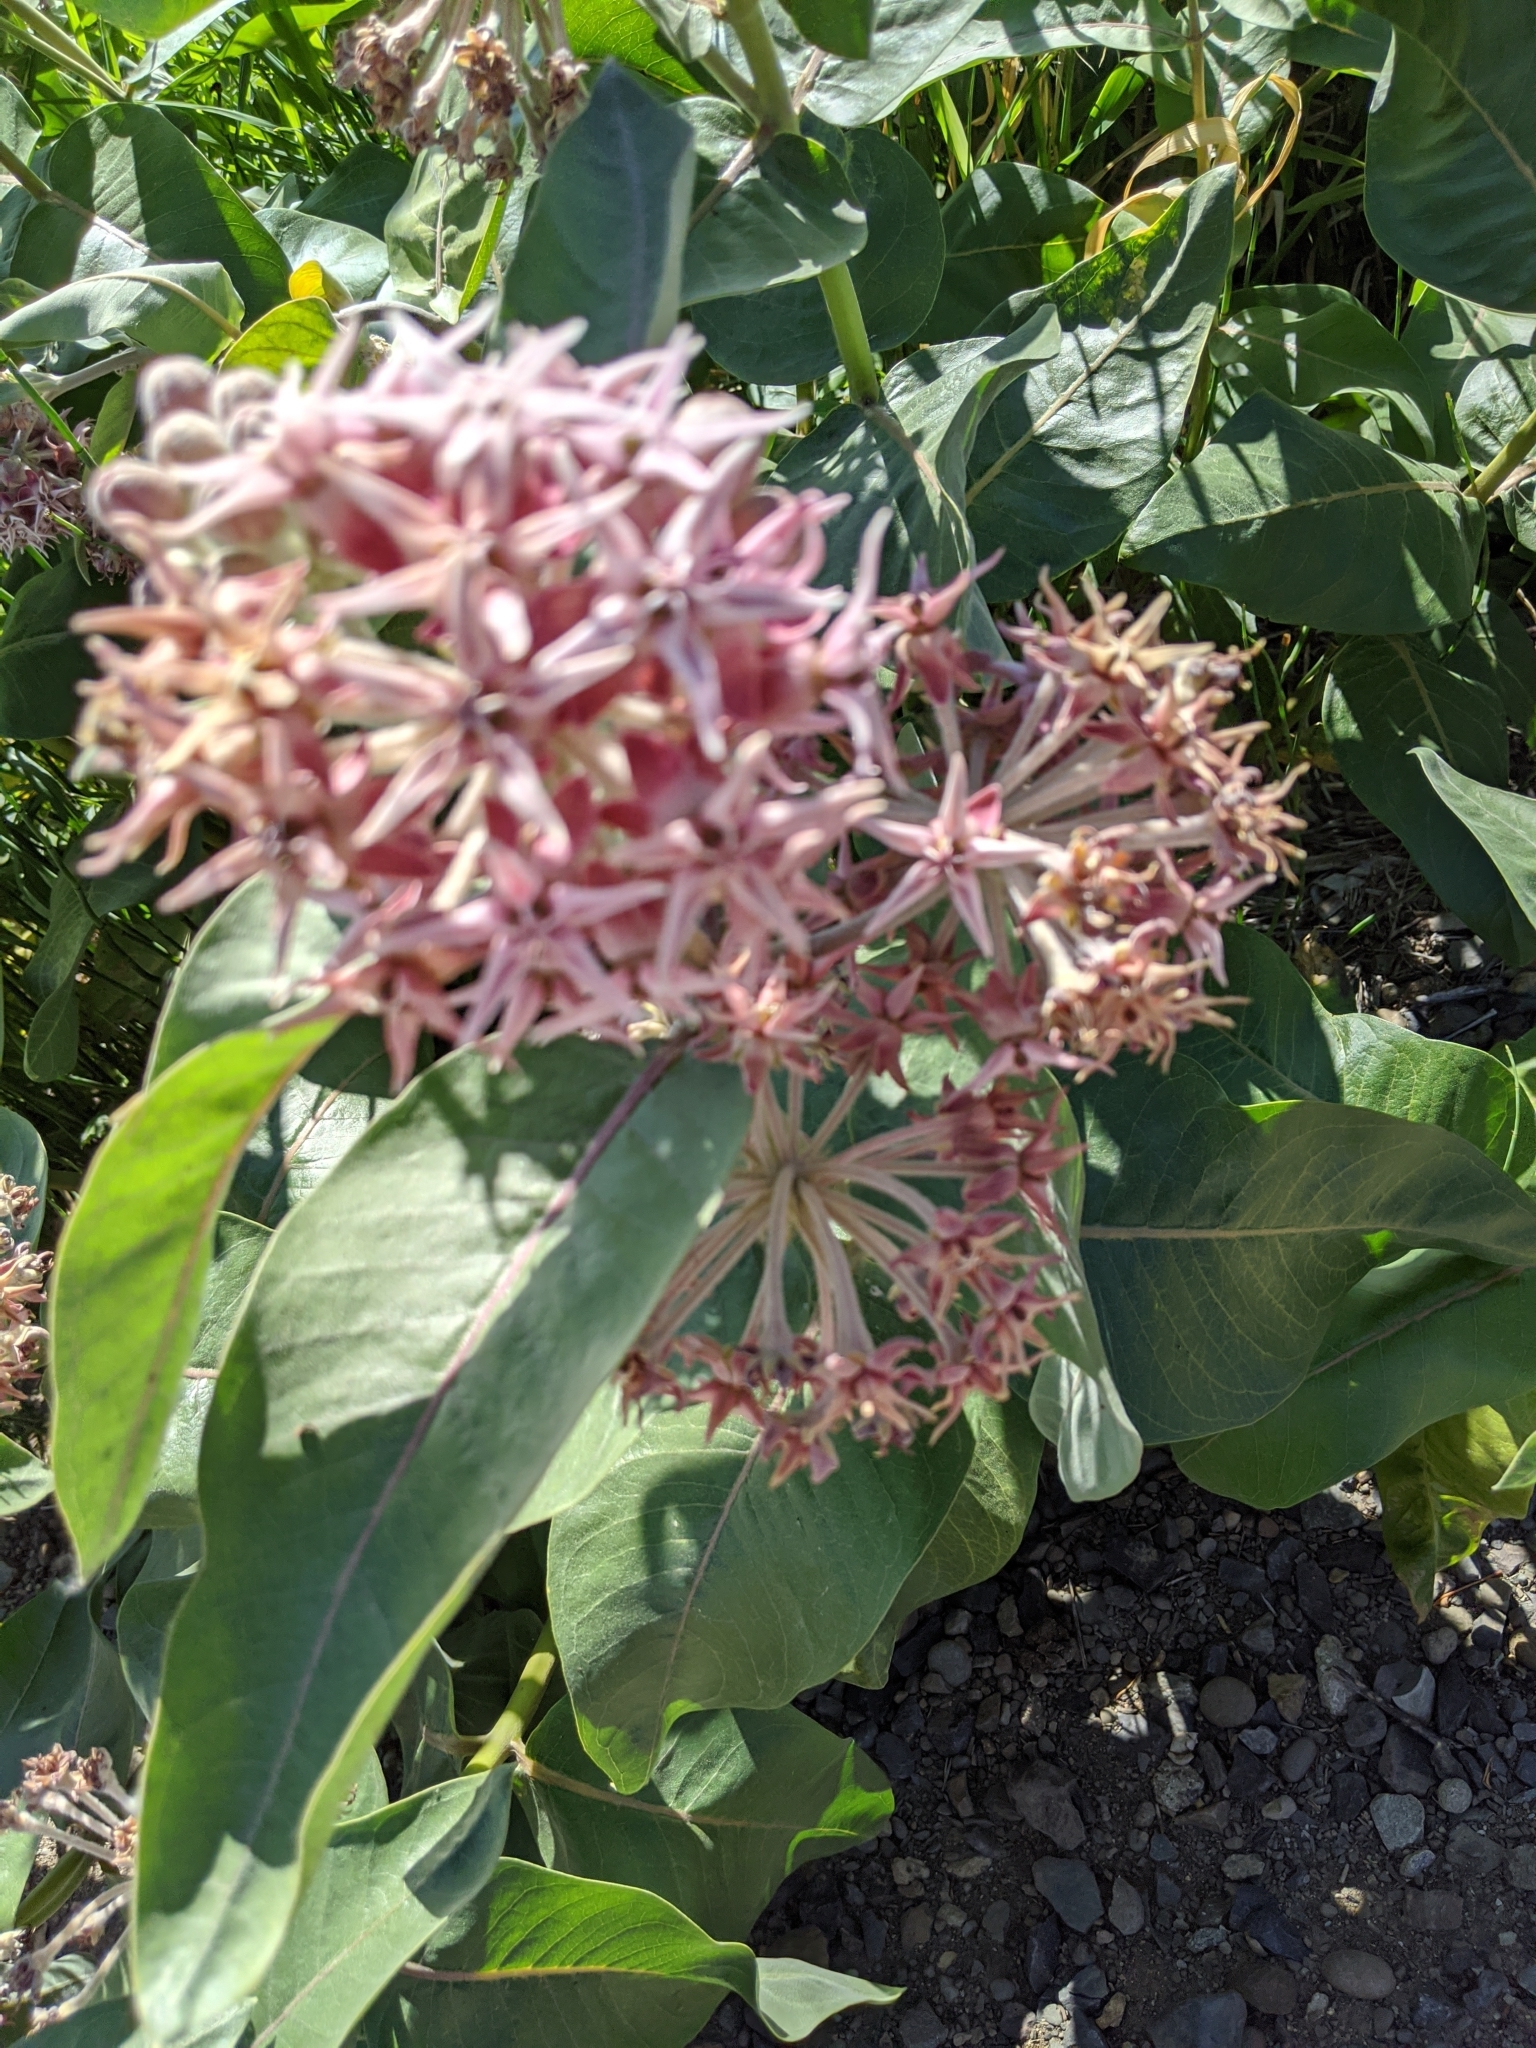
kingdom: Plantae
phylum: Tracheophyta
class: Magnoliopsida
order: Gentianales
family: Apocynaceae
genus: Asclepias
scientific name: Asclepias speciosa
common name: Showy milkweed
